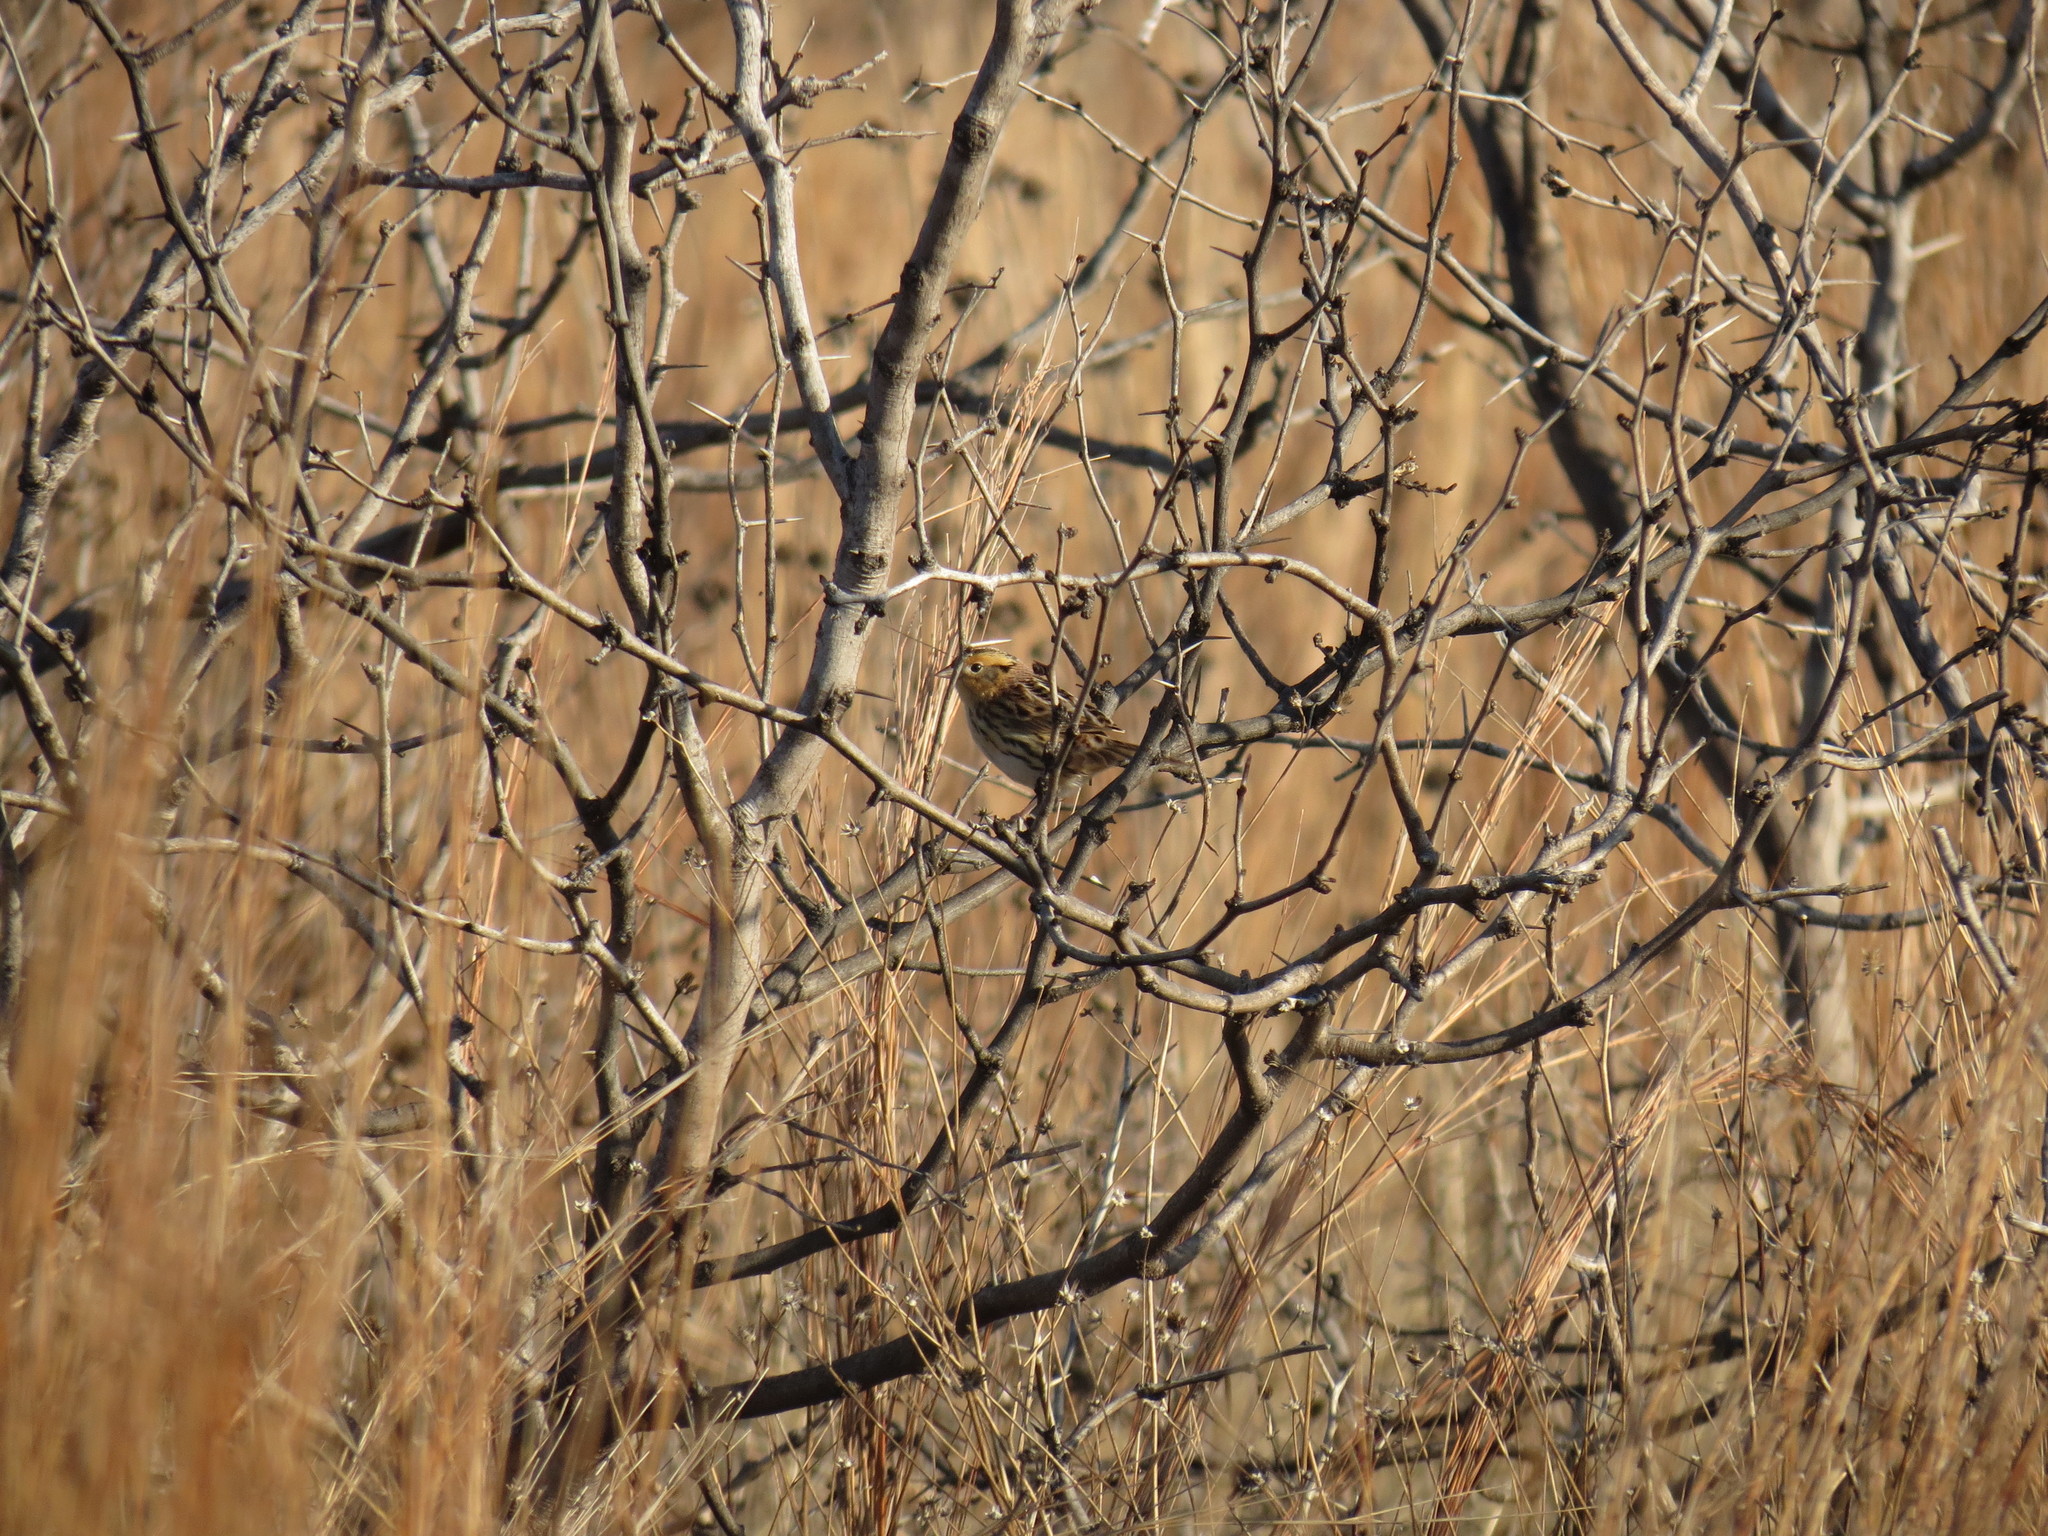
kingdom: Animalia
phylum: Chordata
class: Aves
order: Passeriformes
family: Passerellidae
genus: Ammospiza
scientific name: Ammospiza leconteii
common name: Le conte's sparrow
